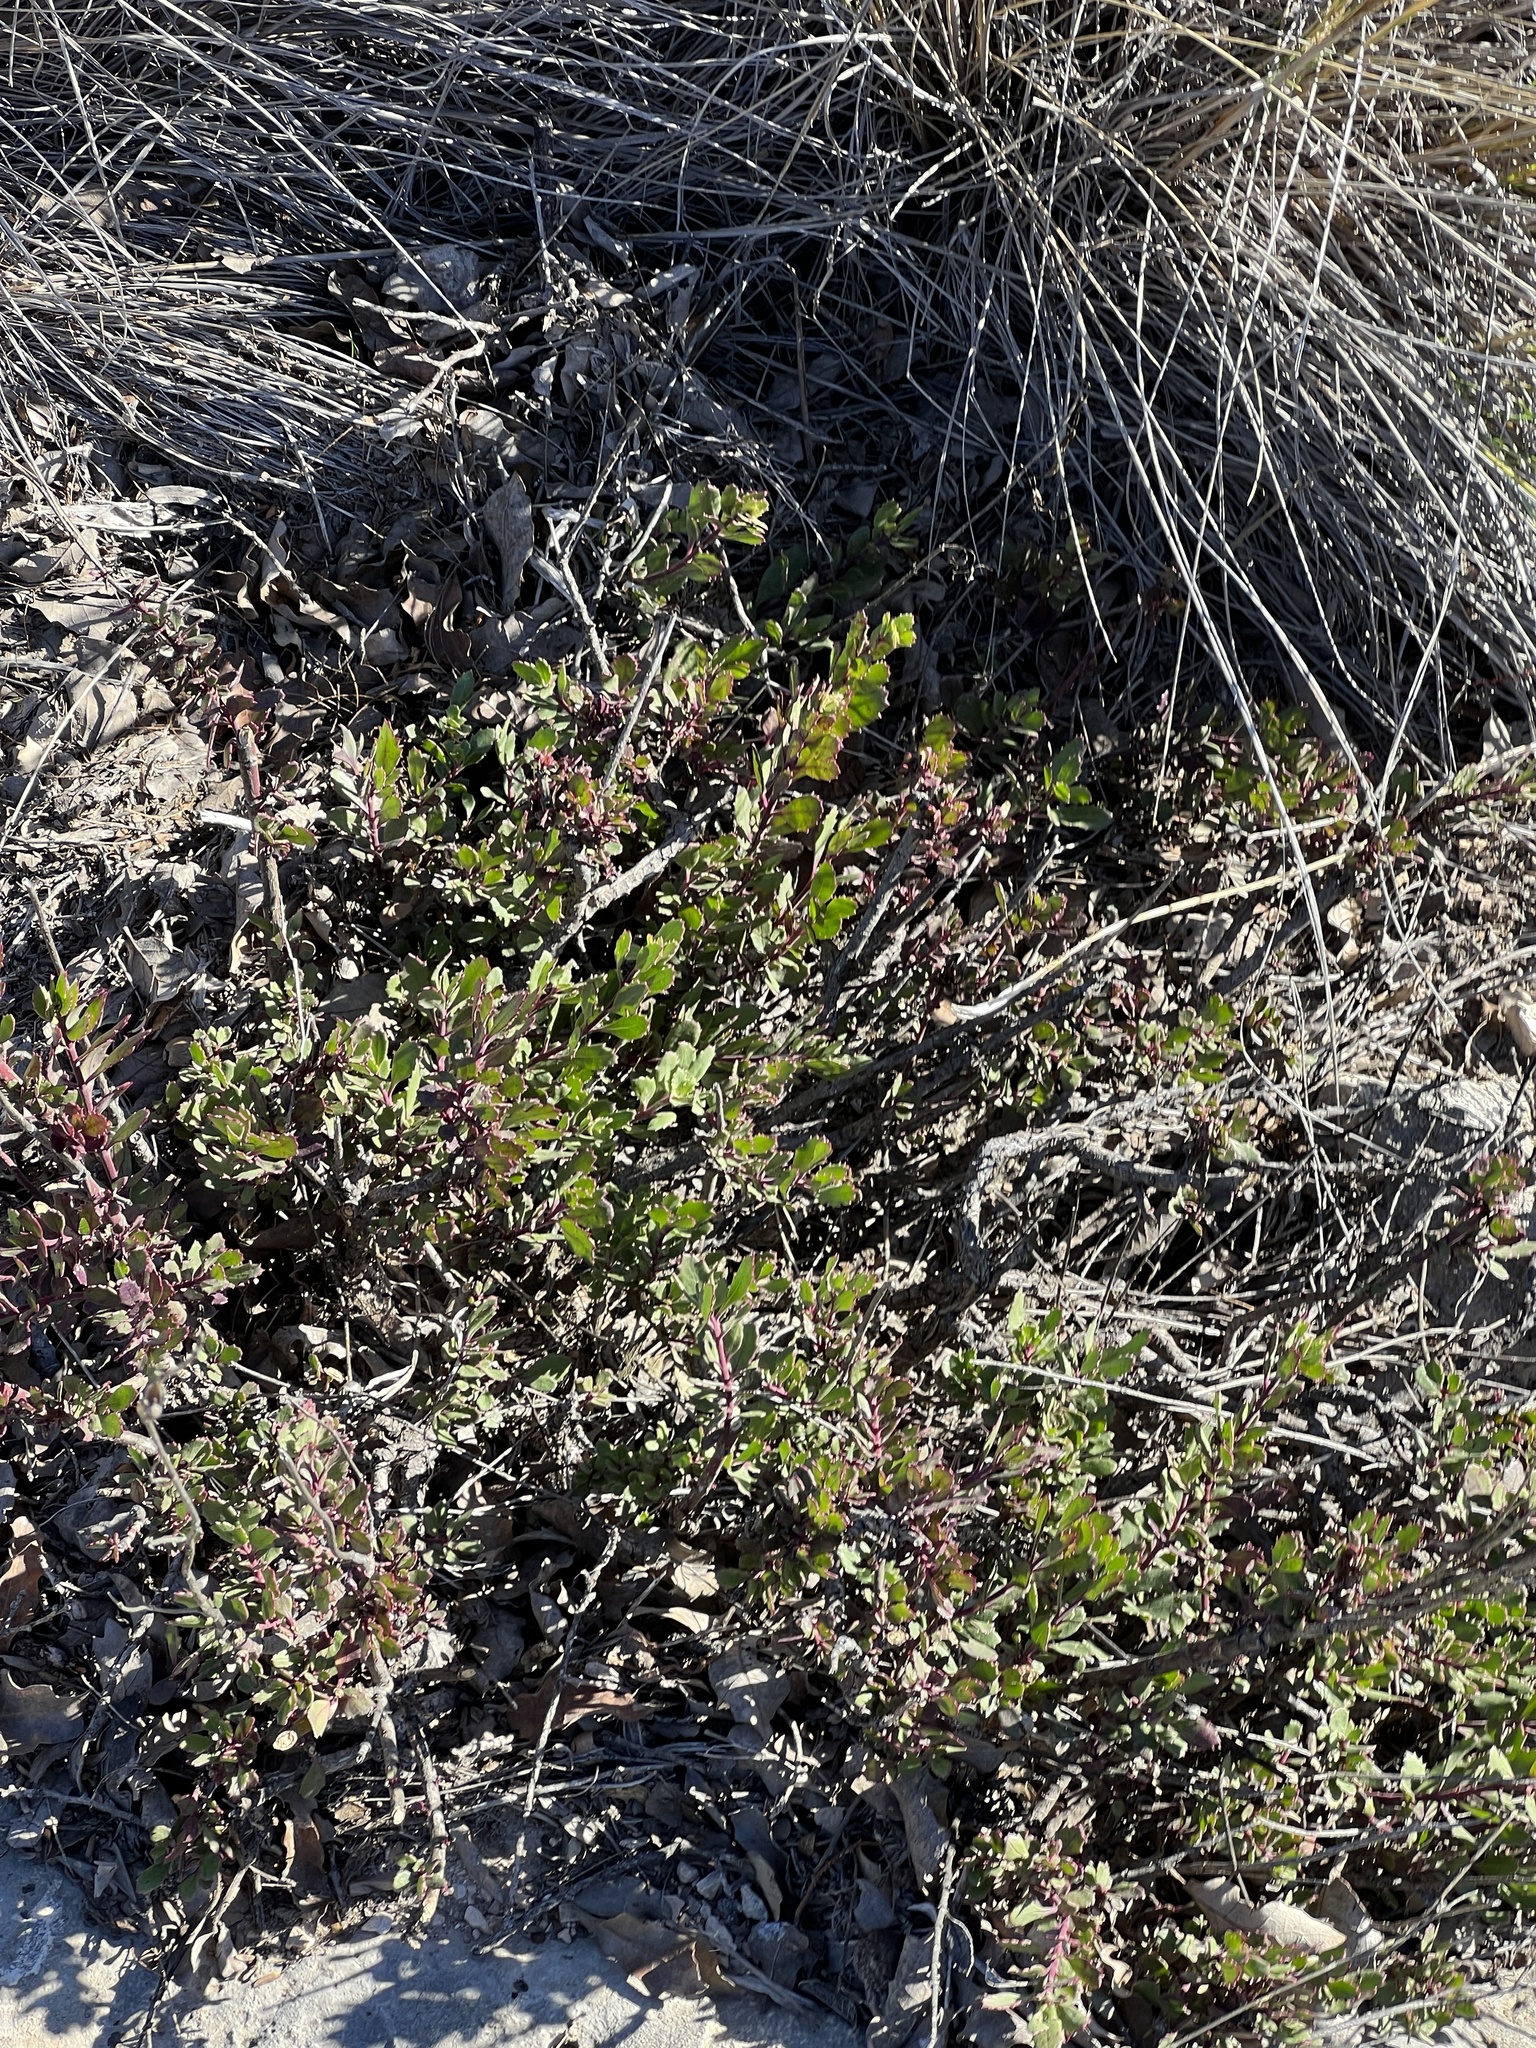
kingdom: Plantae
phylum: Tracheophyta
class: Magnoliopsida
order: Lamiales
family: Plantaginaceae
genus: Penstemon
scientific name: Penstemon baccharifolius
